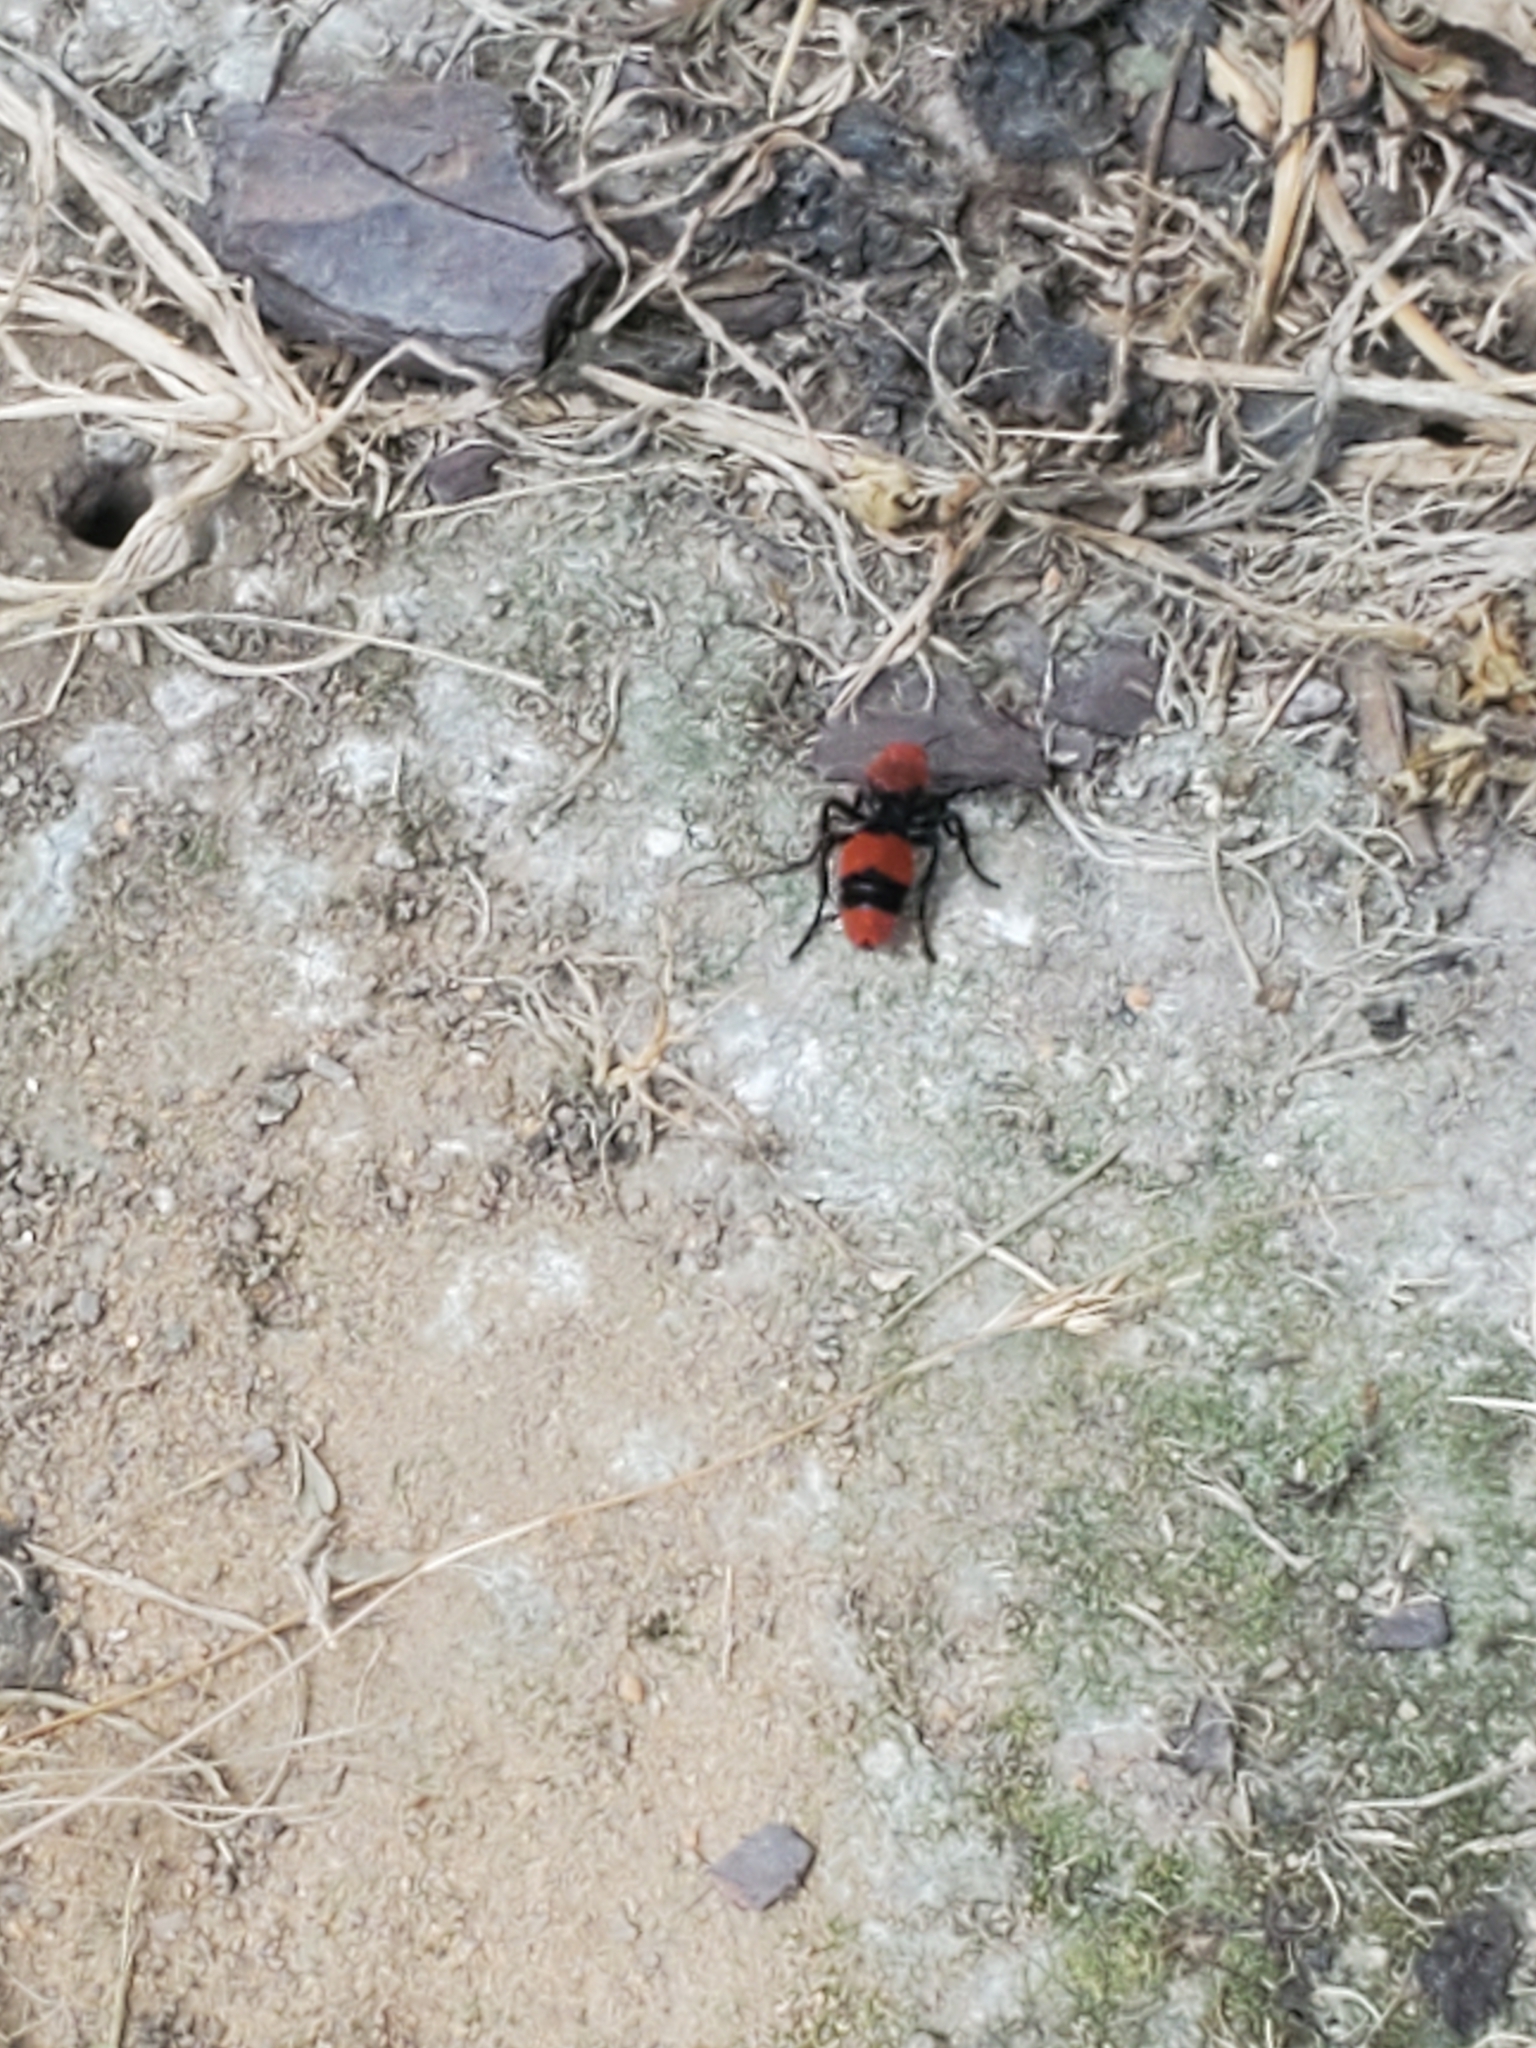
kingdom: Animalia
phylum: Arthropoda
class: Insecta
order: Hymenoptera
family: Mutillidae
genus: Dasymutilla
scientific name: Dasymutilla occidentalis
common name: Common eastern velvet ant
